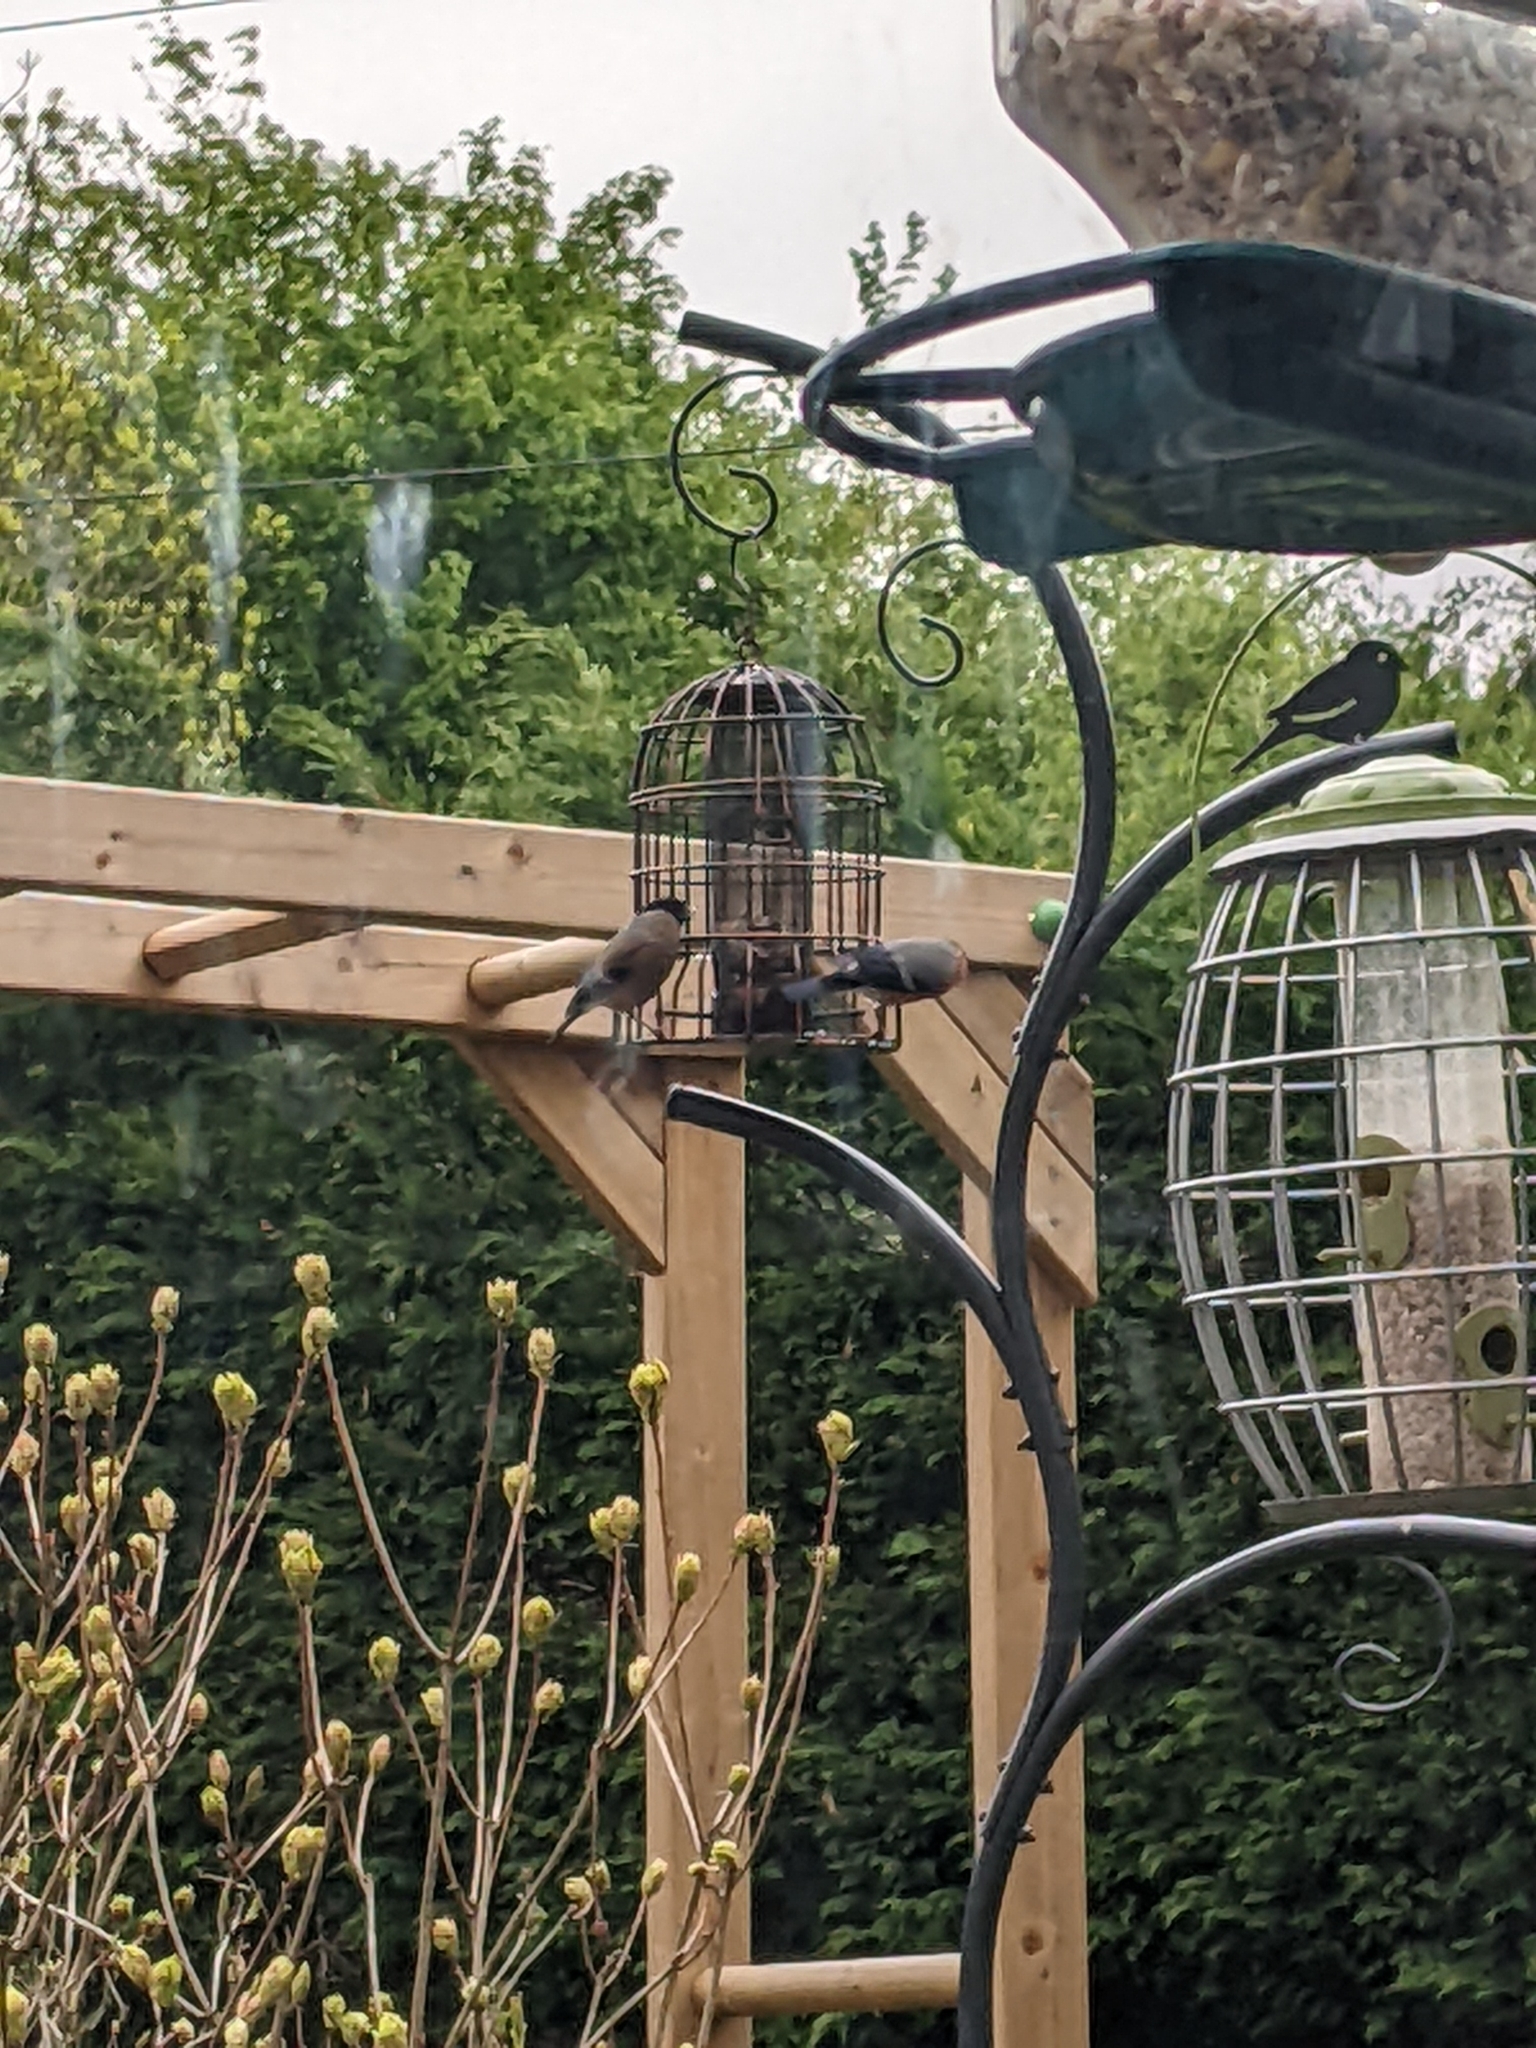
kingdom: Animalia
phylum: Chordata
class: Aves
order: Passeriformes
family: Fringillidae
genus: Pyrrhula
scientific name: Pyrrhula pyrrhula
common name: Eurasian bullfinch
